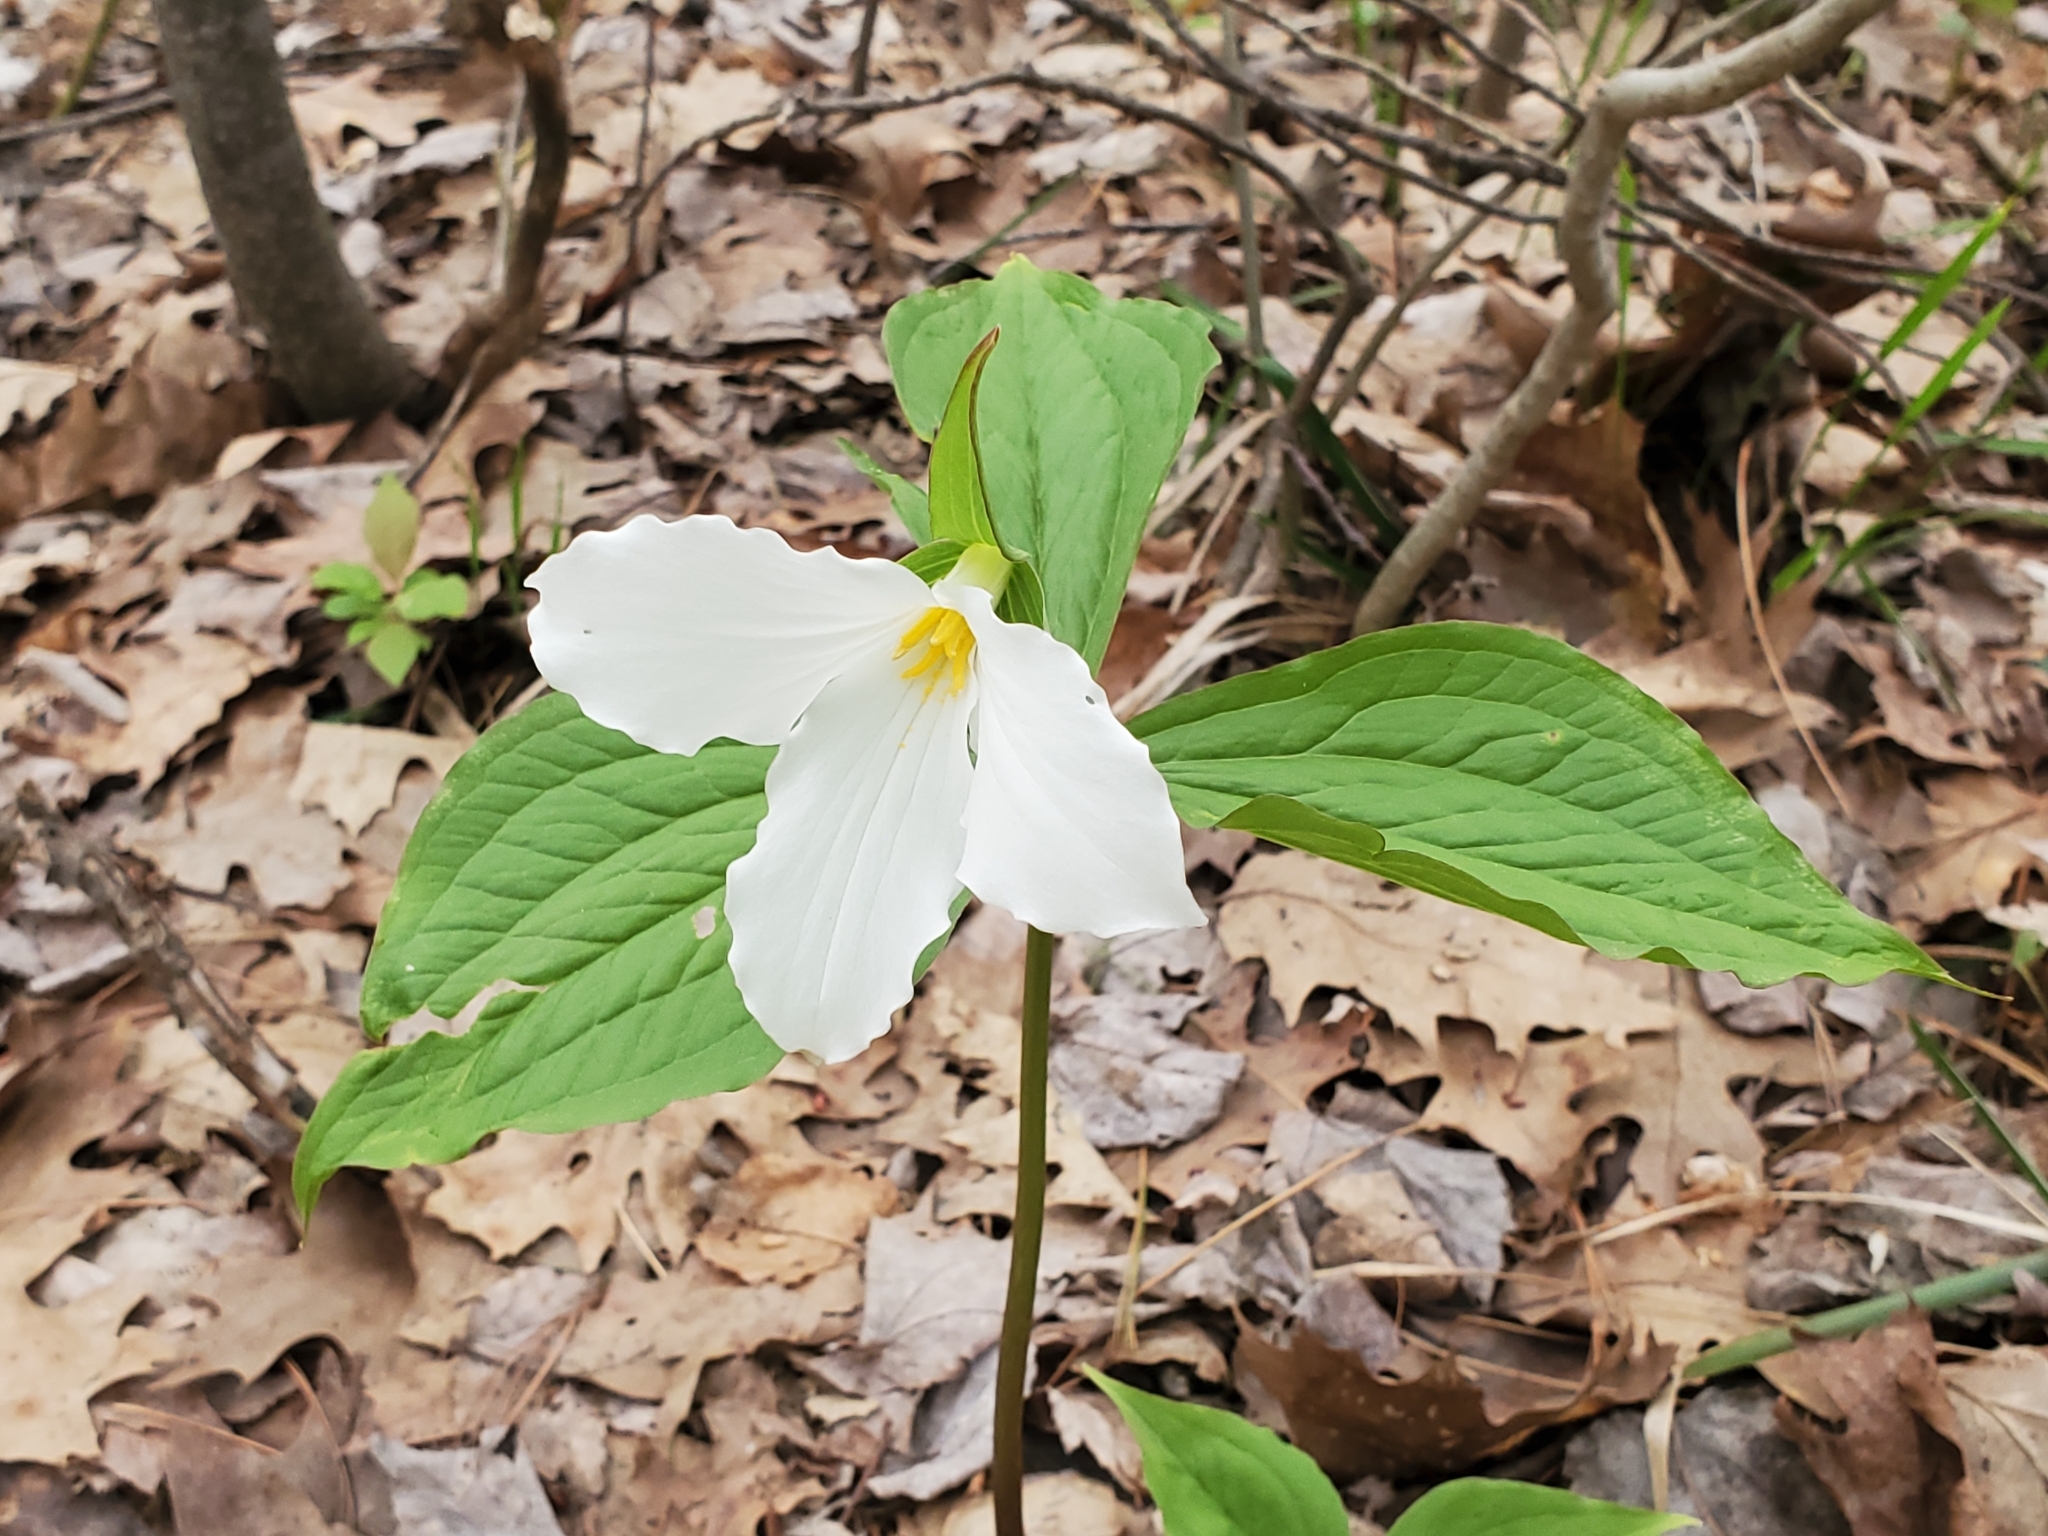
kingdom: Plantae
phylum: Tracheophyta
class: Liliopsida
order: Liliales
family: Melanthiaceae
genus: Trillium
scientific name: Trillium grandiflorum
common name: Great white trillium
